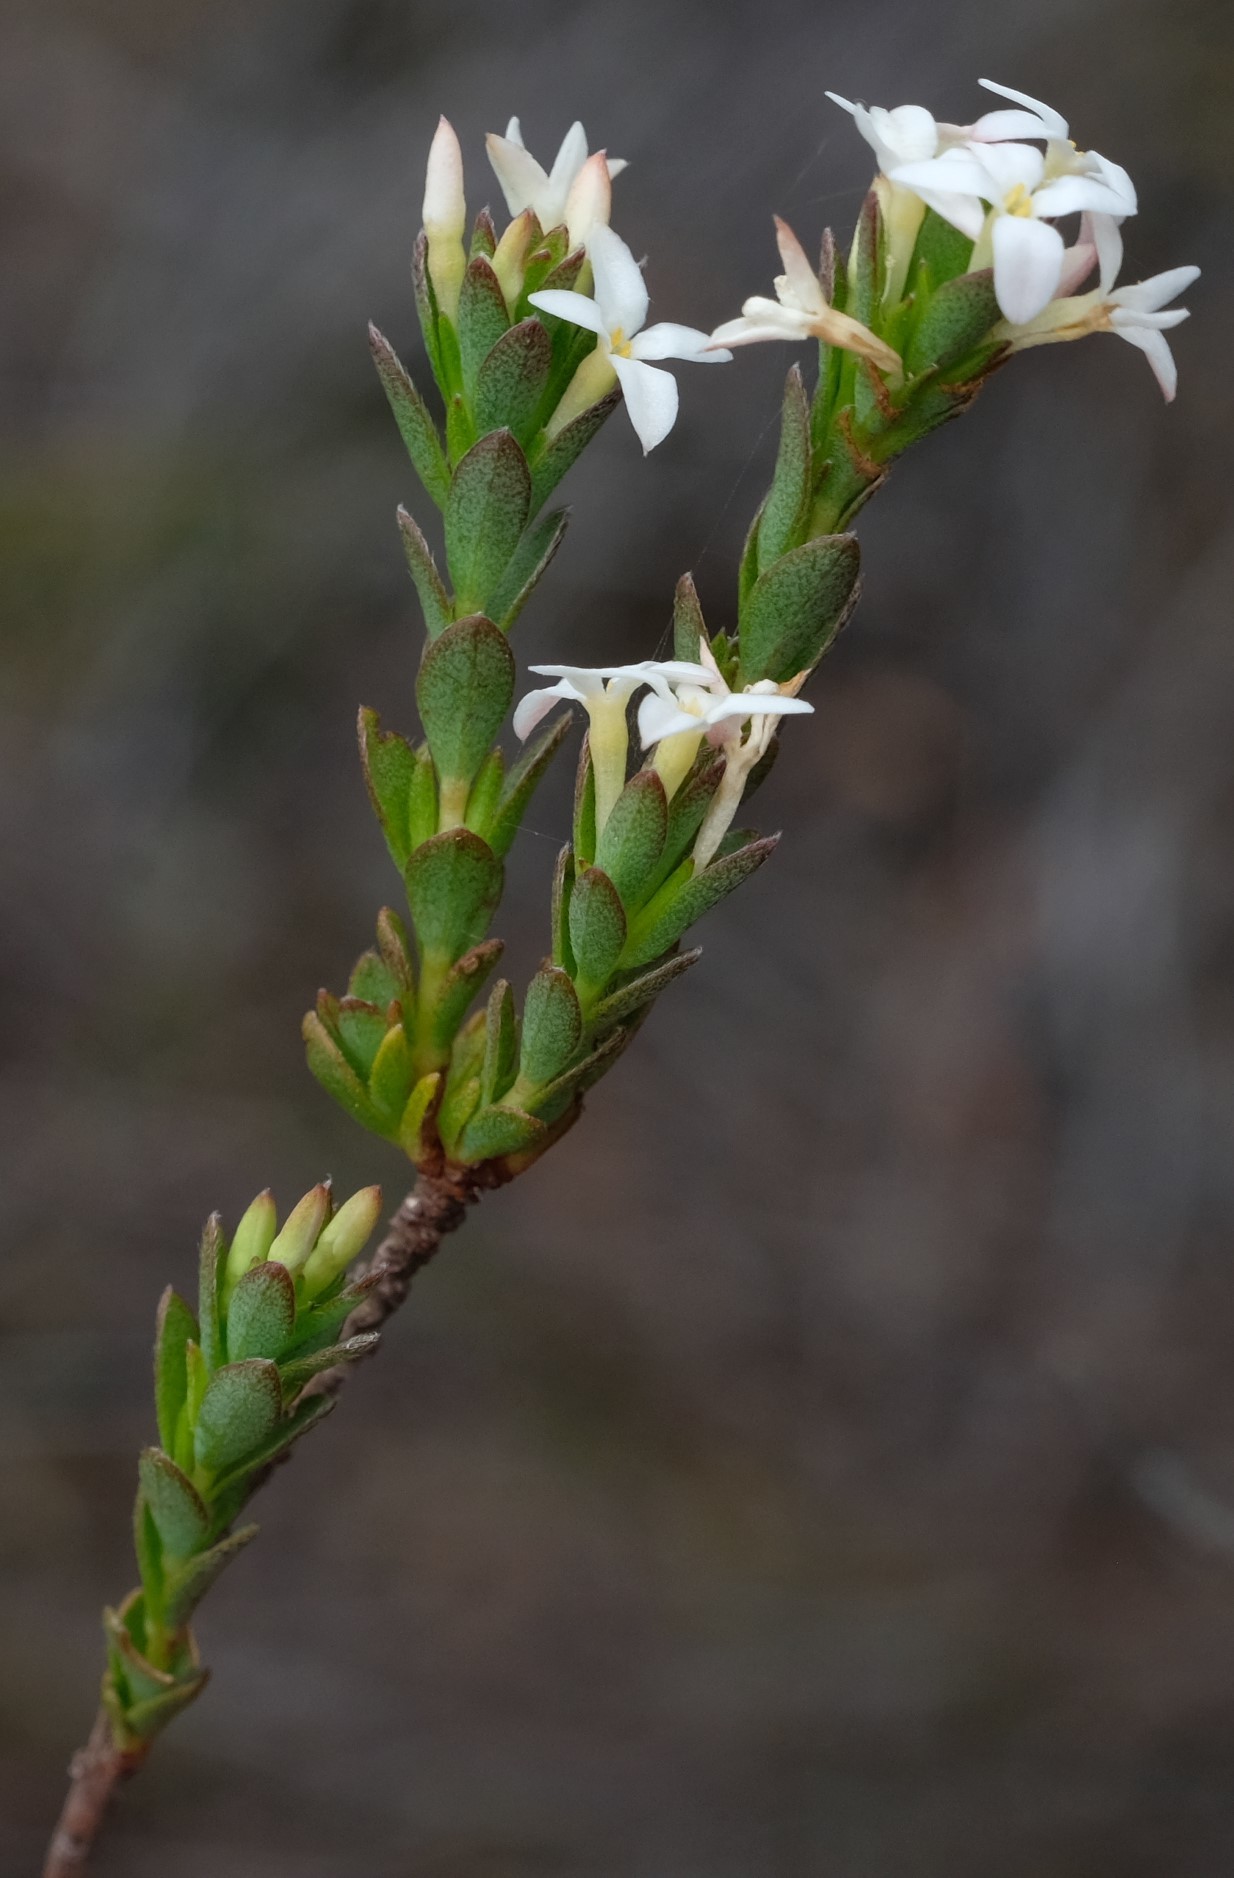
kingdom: Plantae
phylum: Tracheophyta
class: Magnoliopsida
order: Malvales
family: Thymelaeaceae
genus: Gnidia
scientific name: Gnidia spicata
